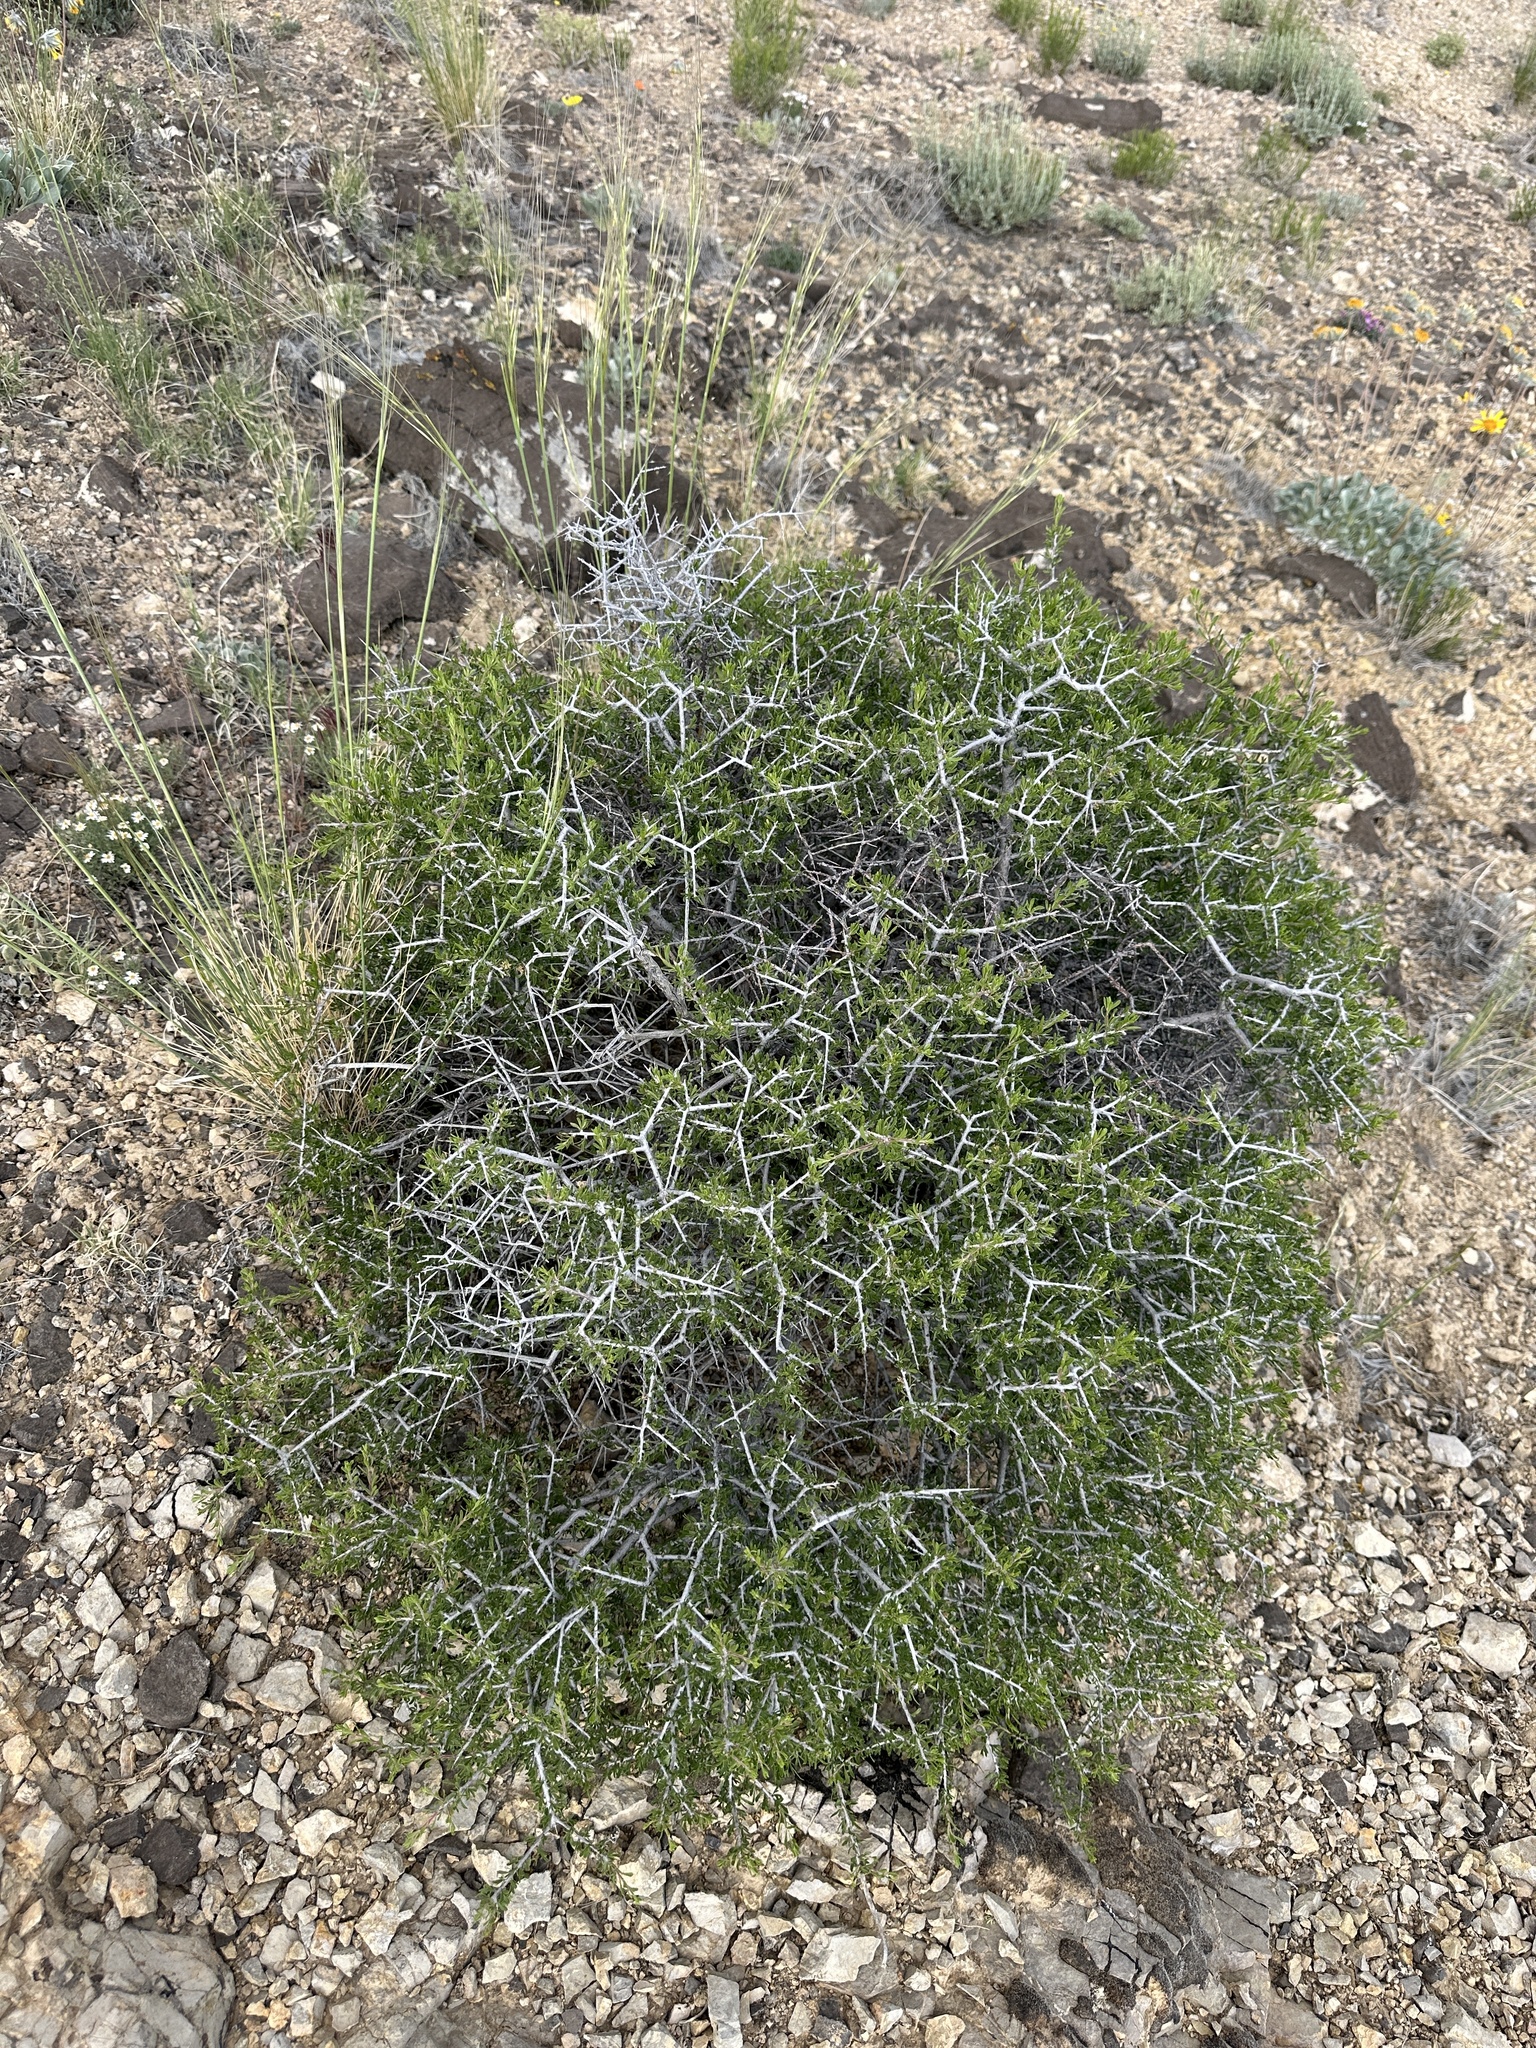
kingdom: Plantae
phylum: Tracheophyta
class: Magnoliopsida
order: Rosales
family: Rosaceae
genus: Prunus
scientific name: Prunus fasciculata
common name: Desert almond
